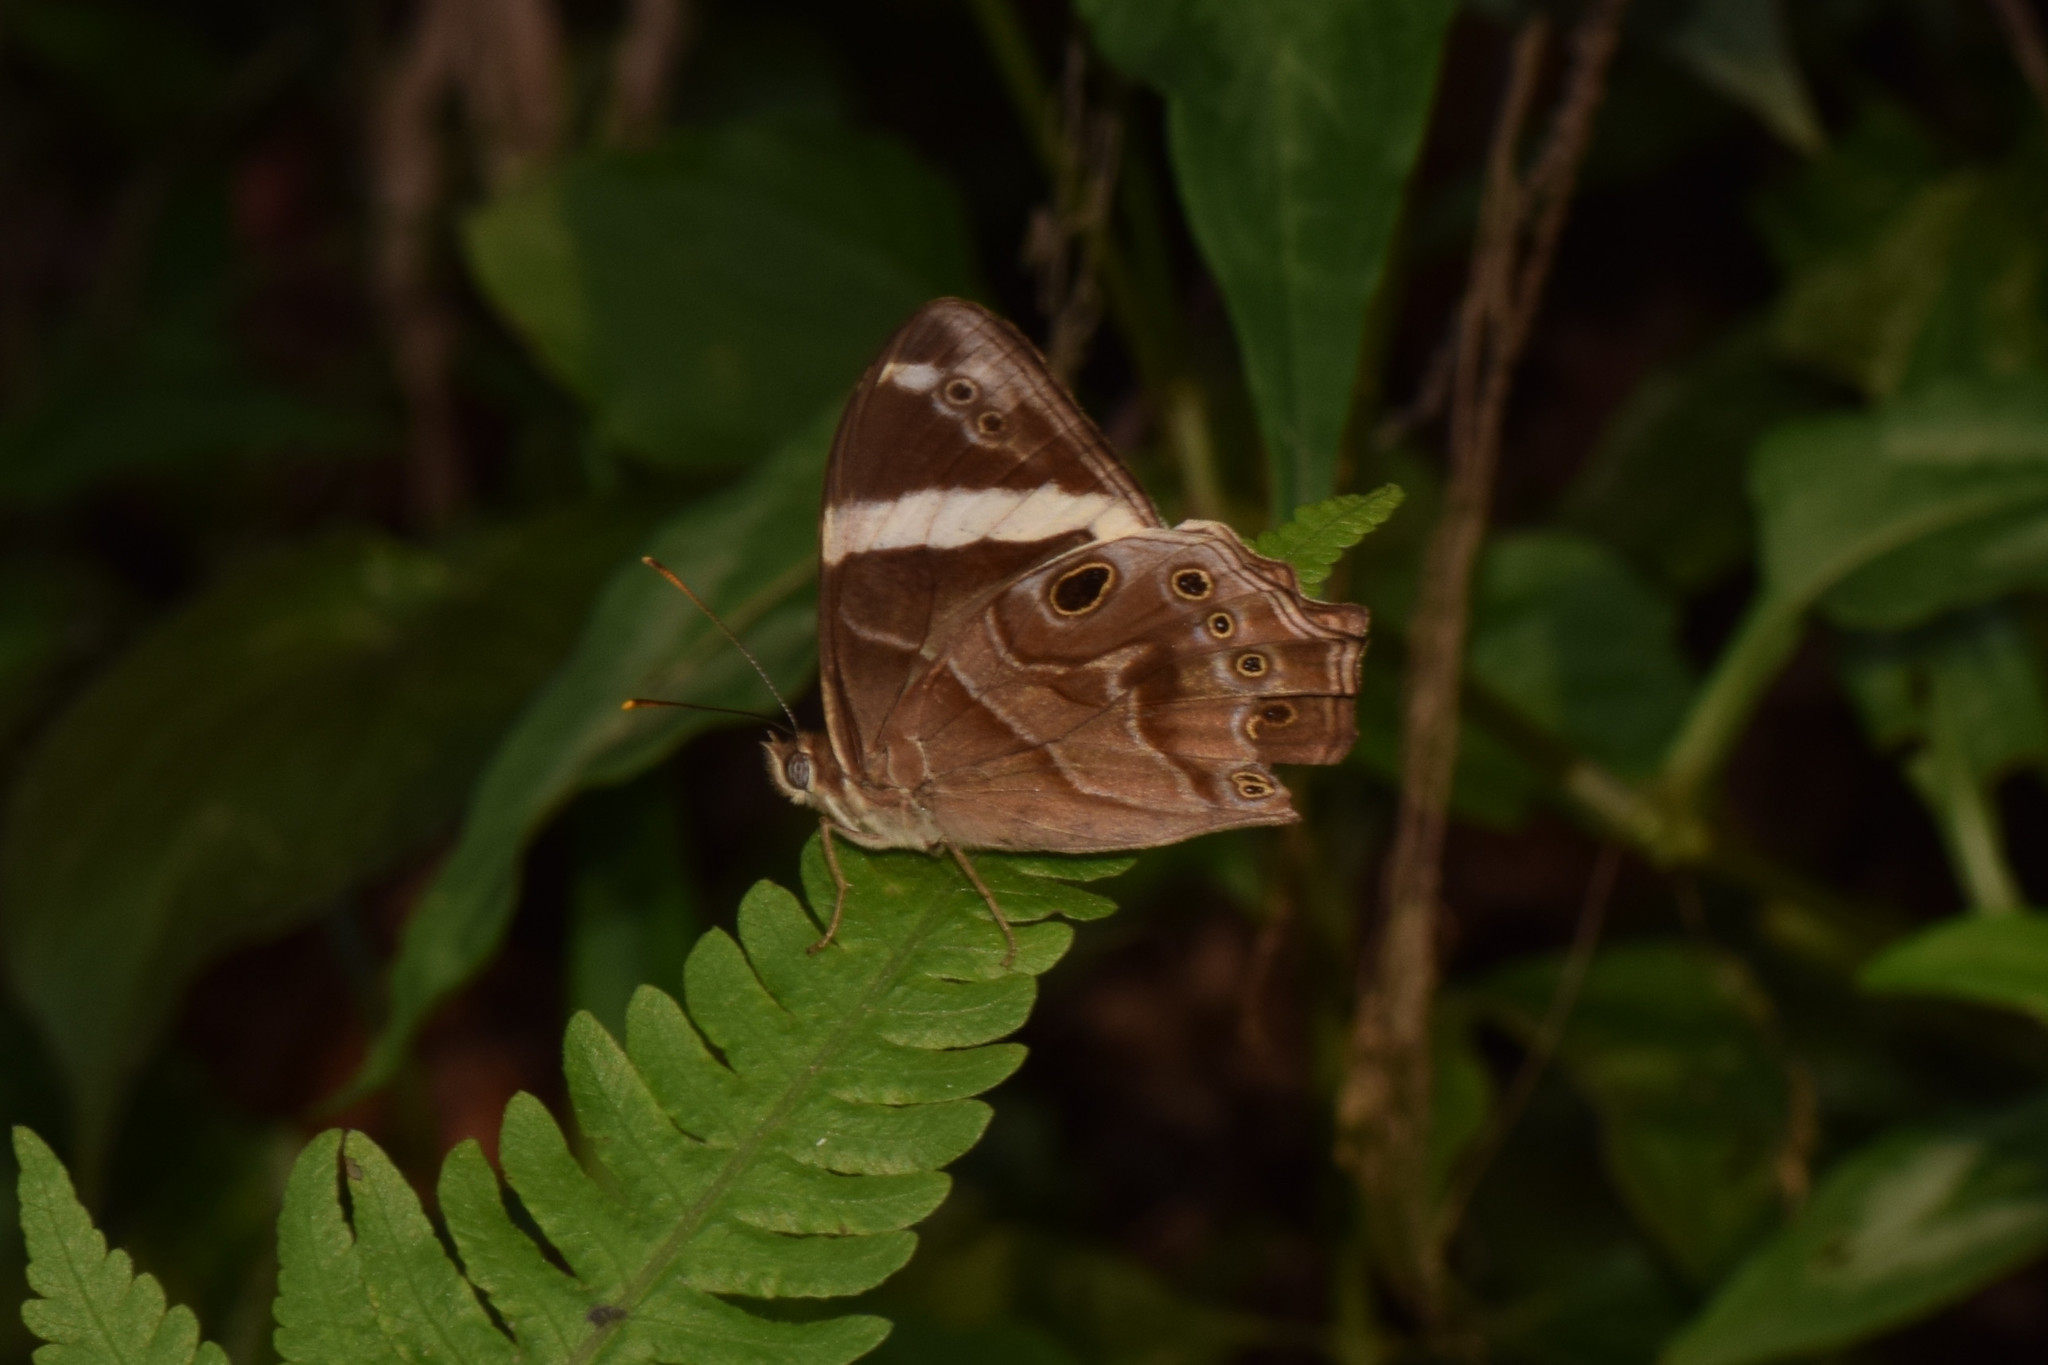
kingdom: Animalia
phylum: Arthropoda
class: Insecta
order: Lepidoptera
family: Nymphalidae
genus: Lethe
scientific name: Lethe confusa
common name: Banded treebrown
